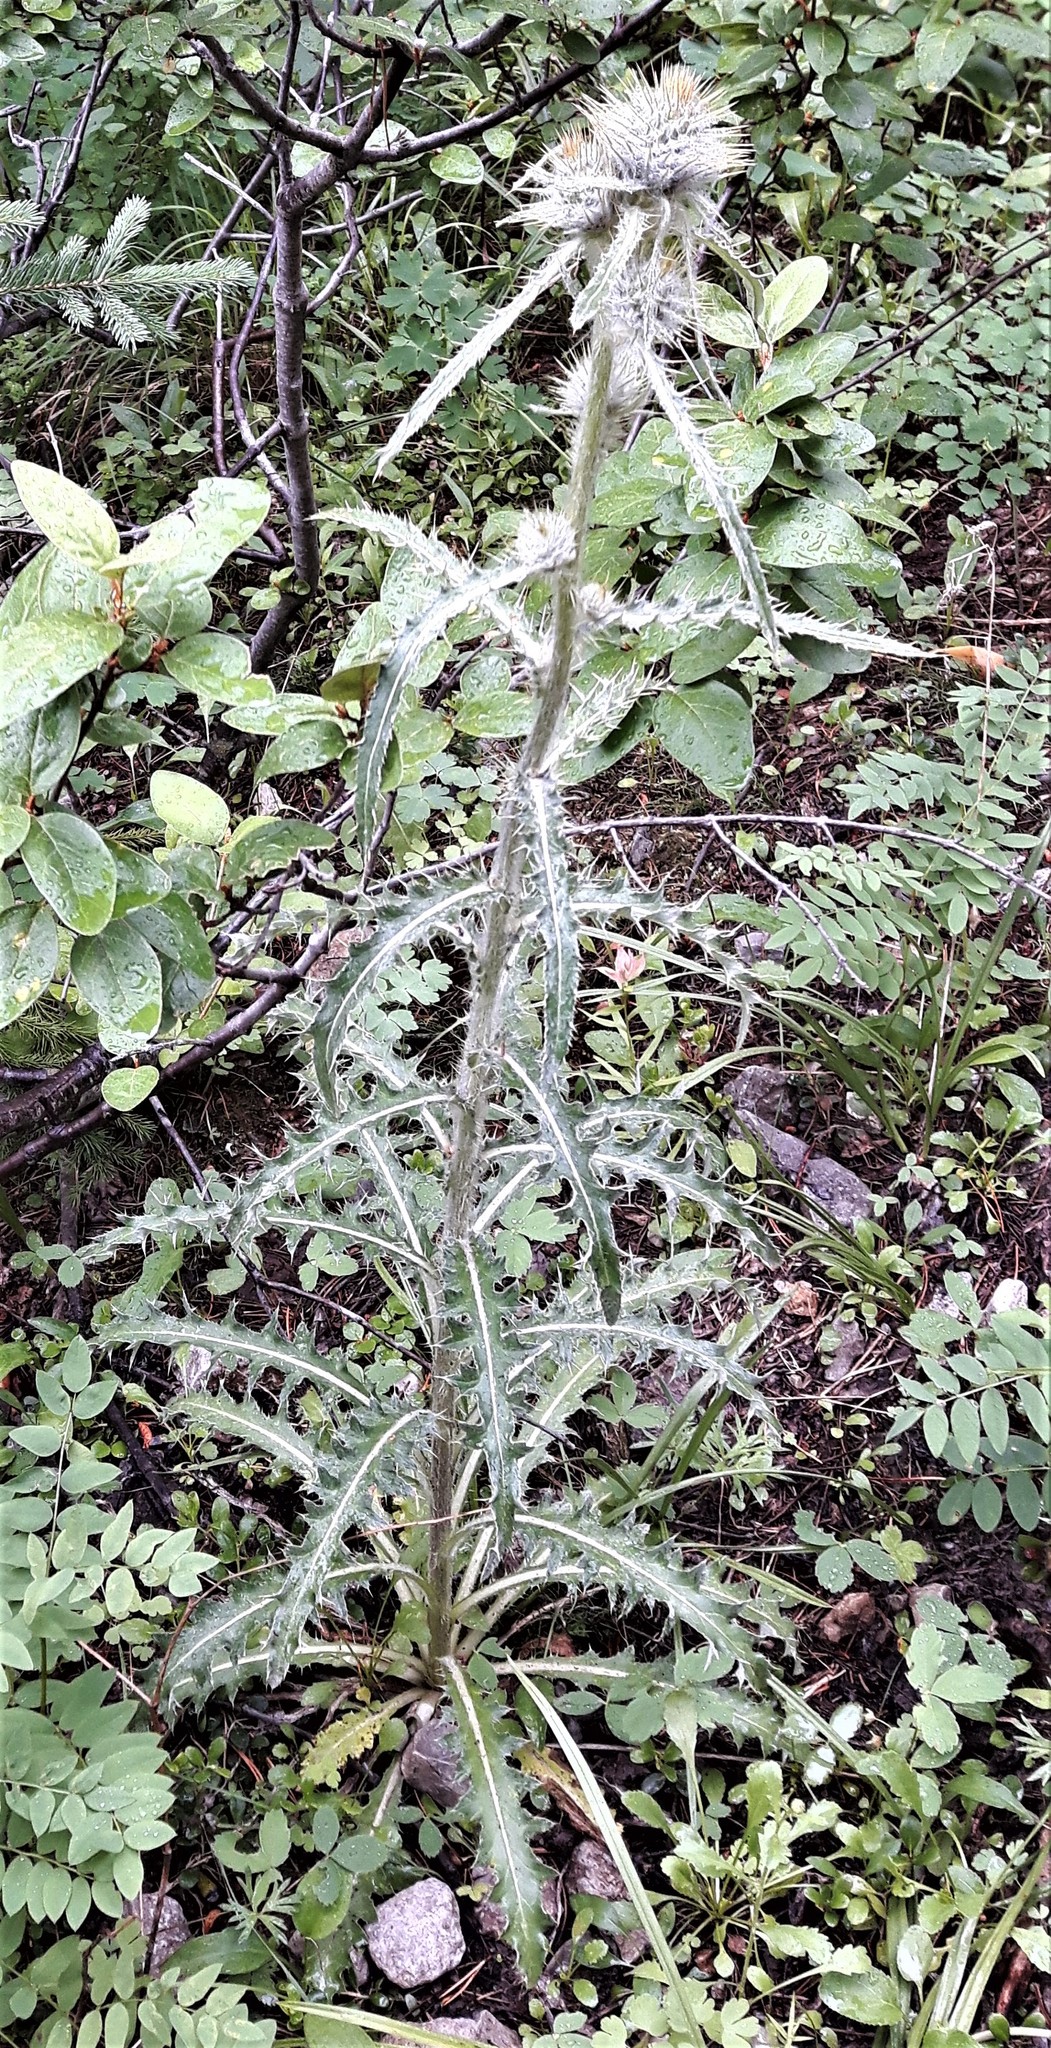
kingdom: Plantae
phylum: Tracheophyta
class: Magnoliopsida
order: Asterales
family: Asteraceae
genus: Cirsium
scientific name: Cirsium hookerianum
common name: Hooker's thistle
